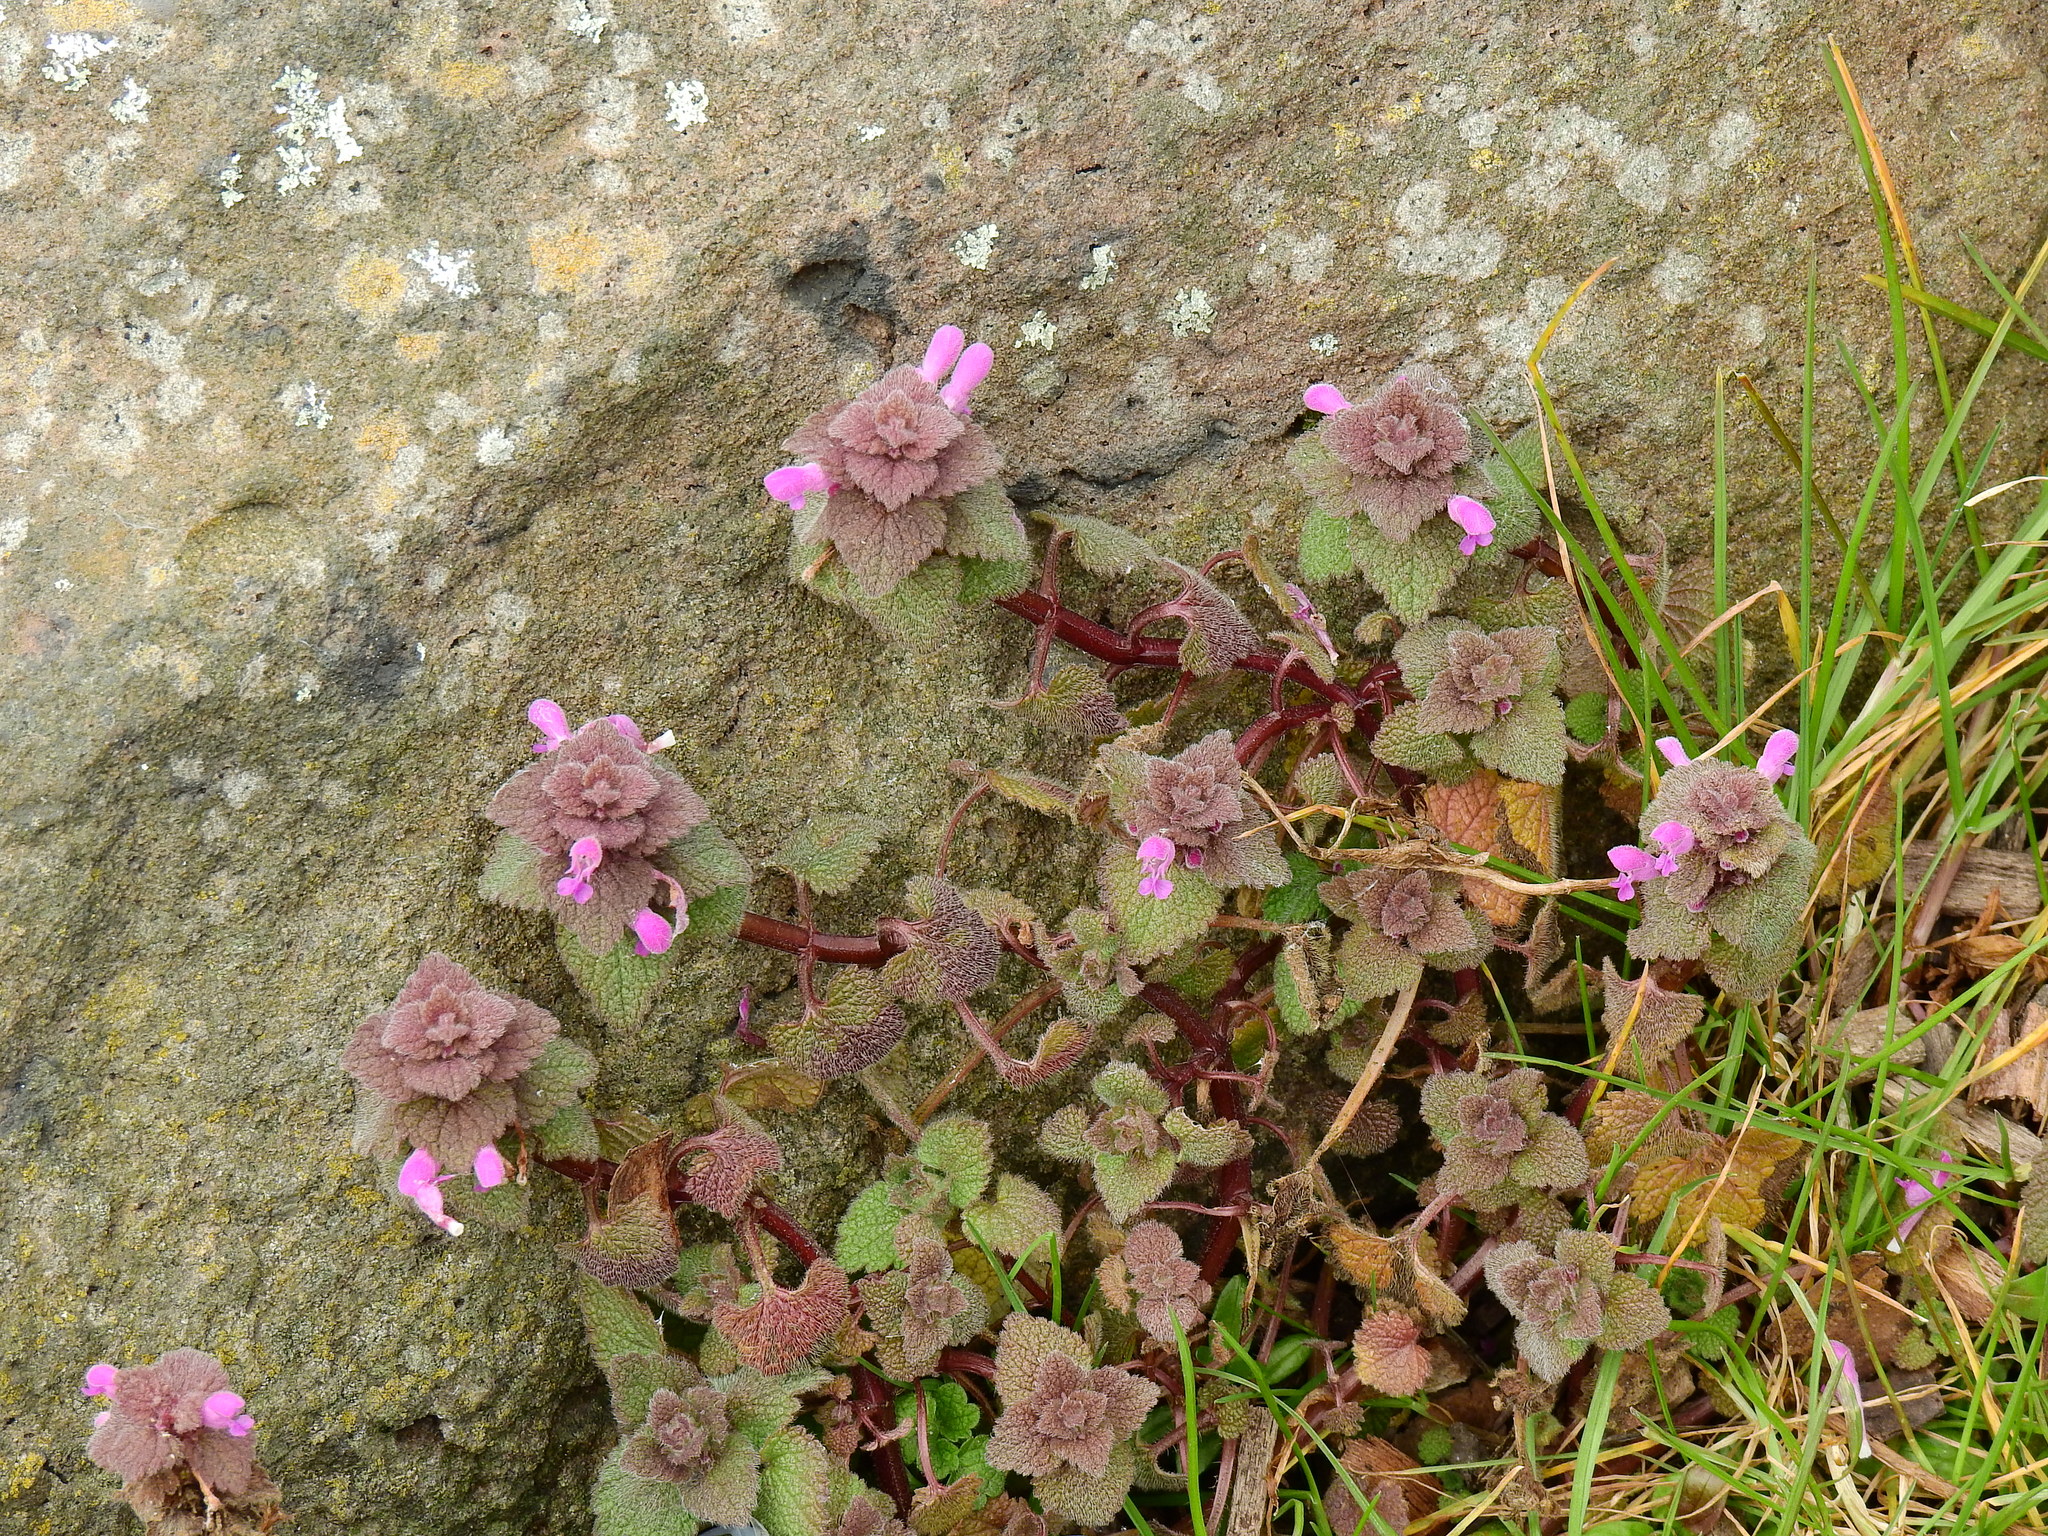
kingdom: Plantae
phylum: Tracheophyta
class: Magnoliopsida
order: Lamiales
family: Lamiaceae
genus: Lamium
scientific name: Lamium purpureum
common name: Red dead-nettle
